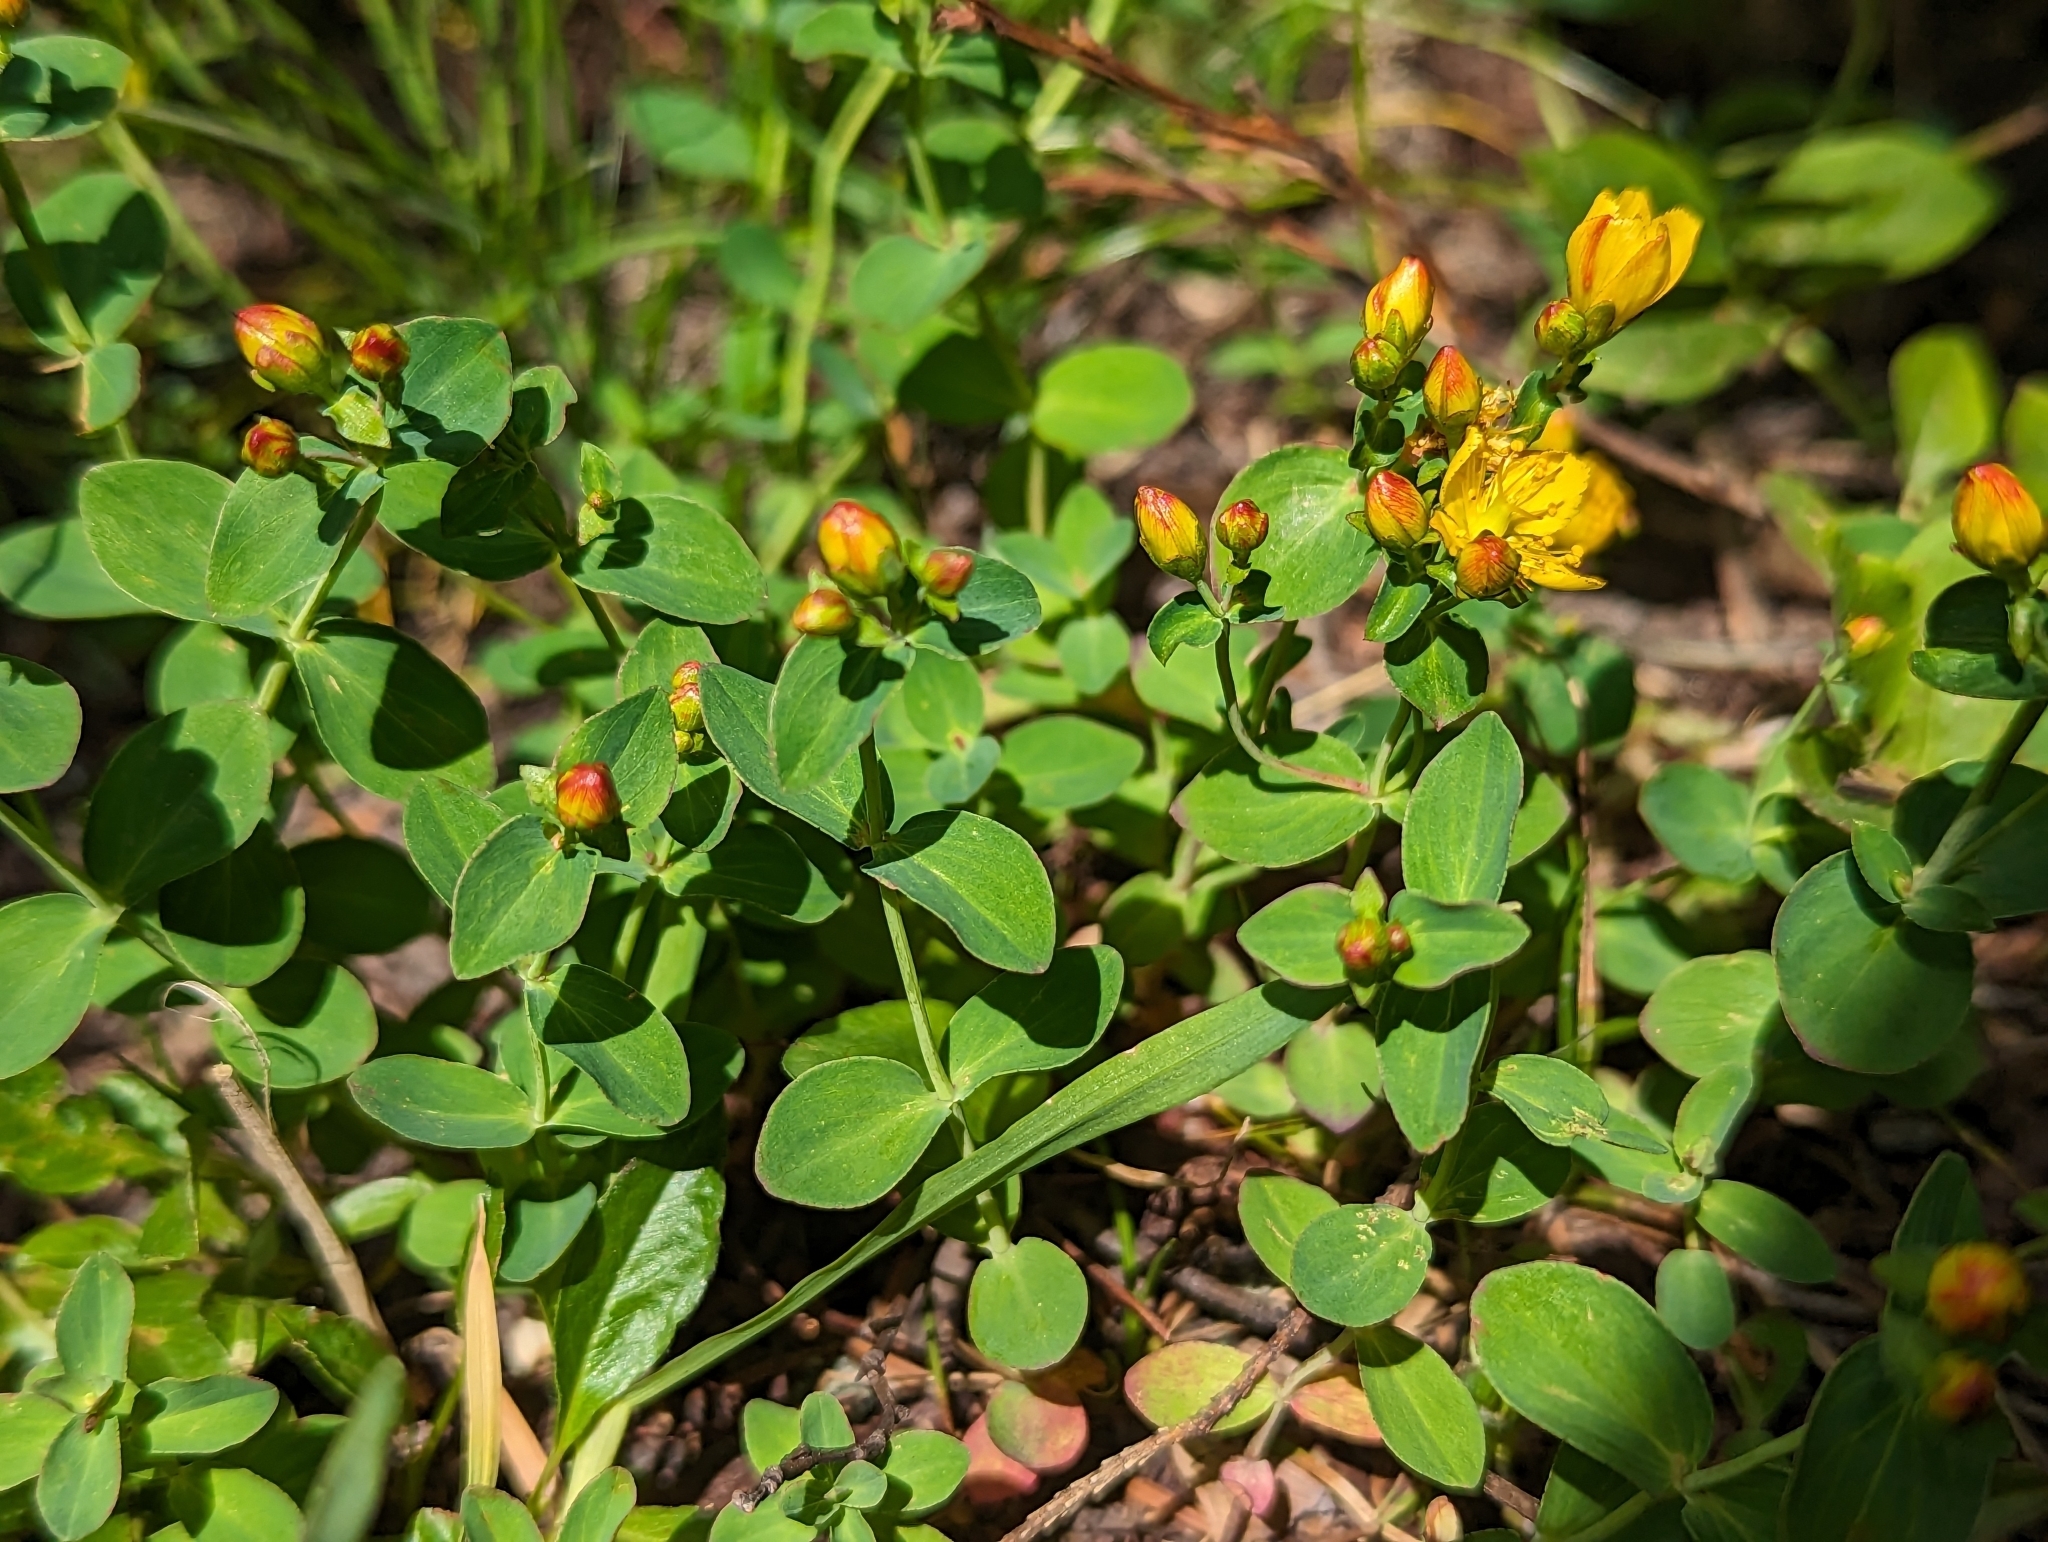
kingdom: Plantae
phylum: Tracheophyta
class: Magnoliopsida
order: Malpighiales
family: Hypericaceae
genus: Hypericum
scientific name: Hypericum scouleri
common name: Scouler's st. john's-wort
